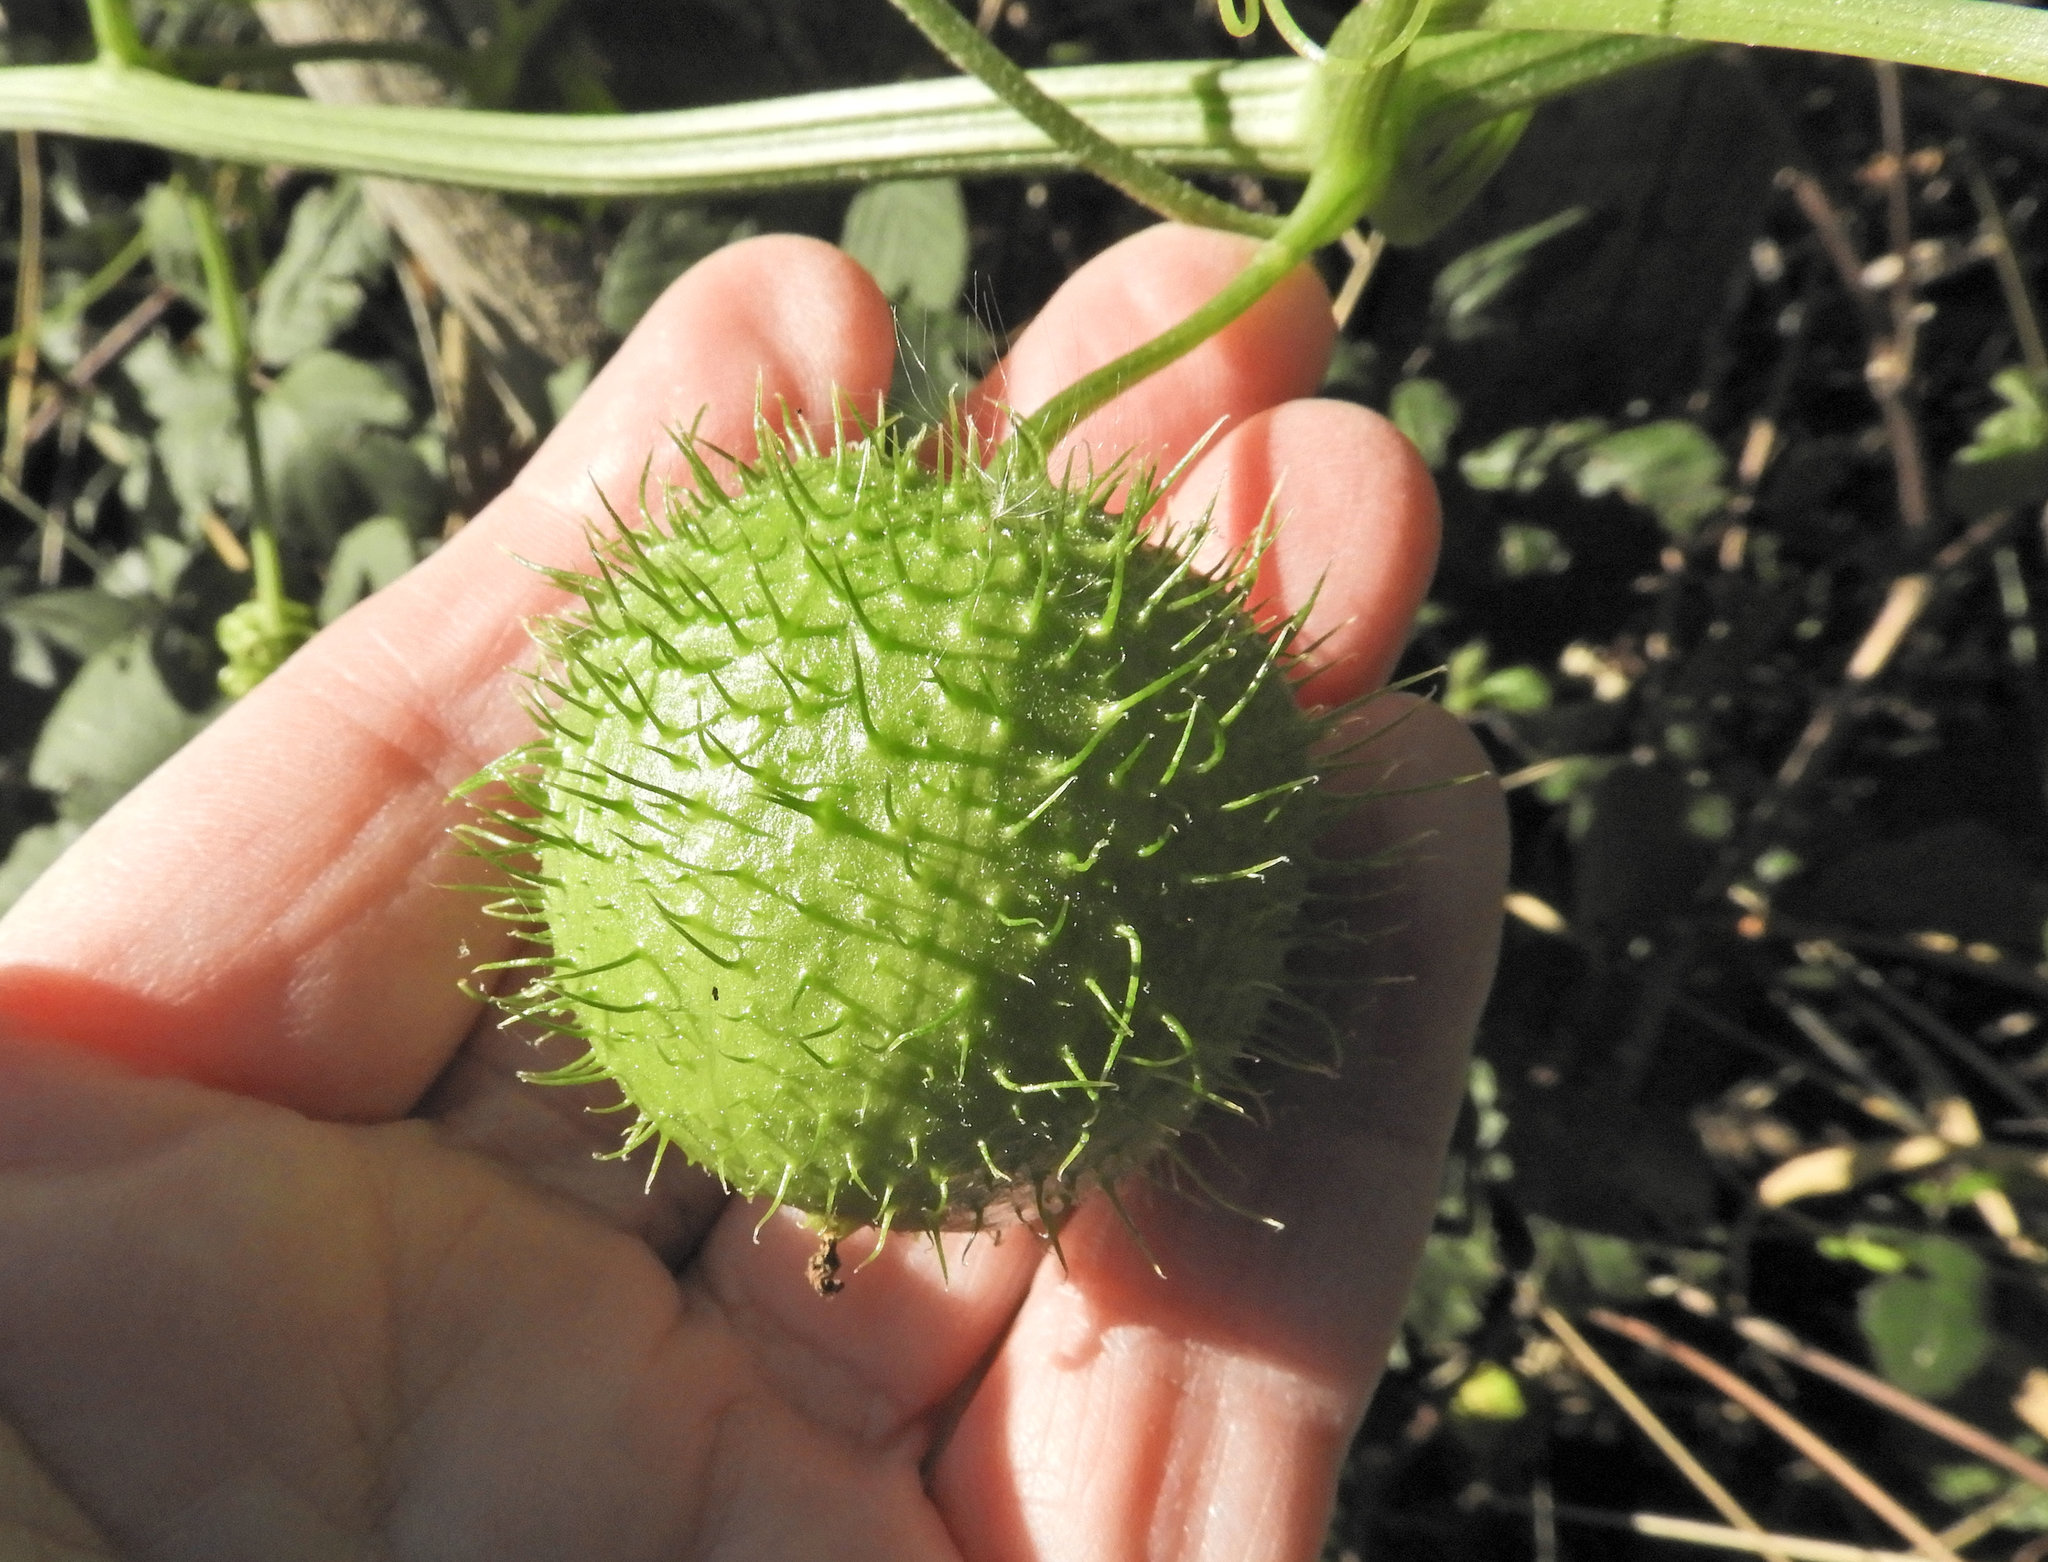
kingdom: Plantae
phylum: Tracheophyta
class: Magnoliopsida
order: Cucurbitales
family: Cucurbitaceae
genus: Marah
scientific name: Marah fabacea
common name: California manroot
